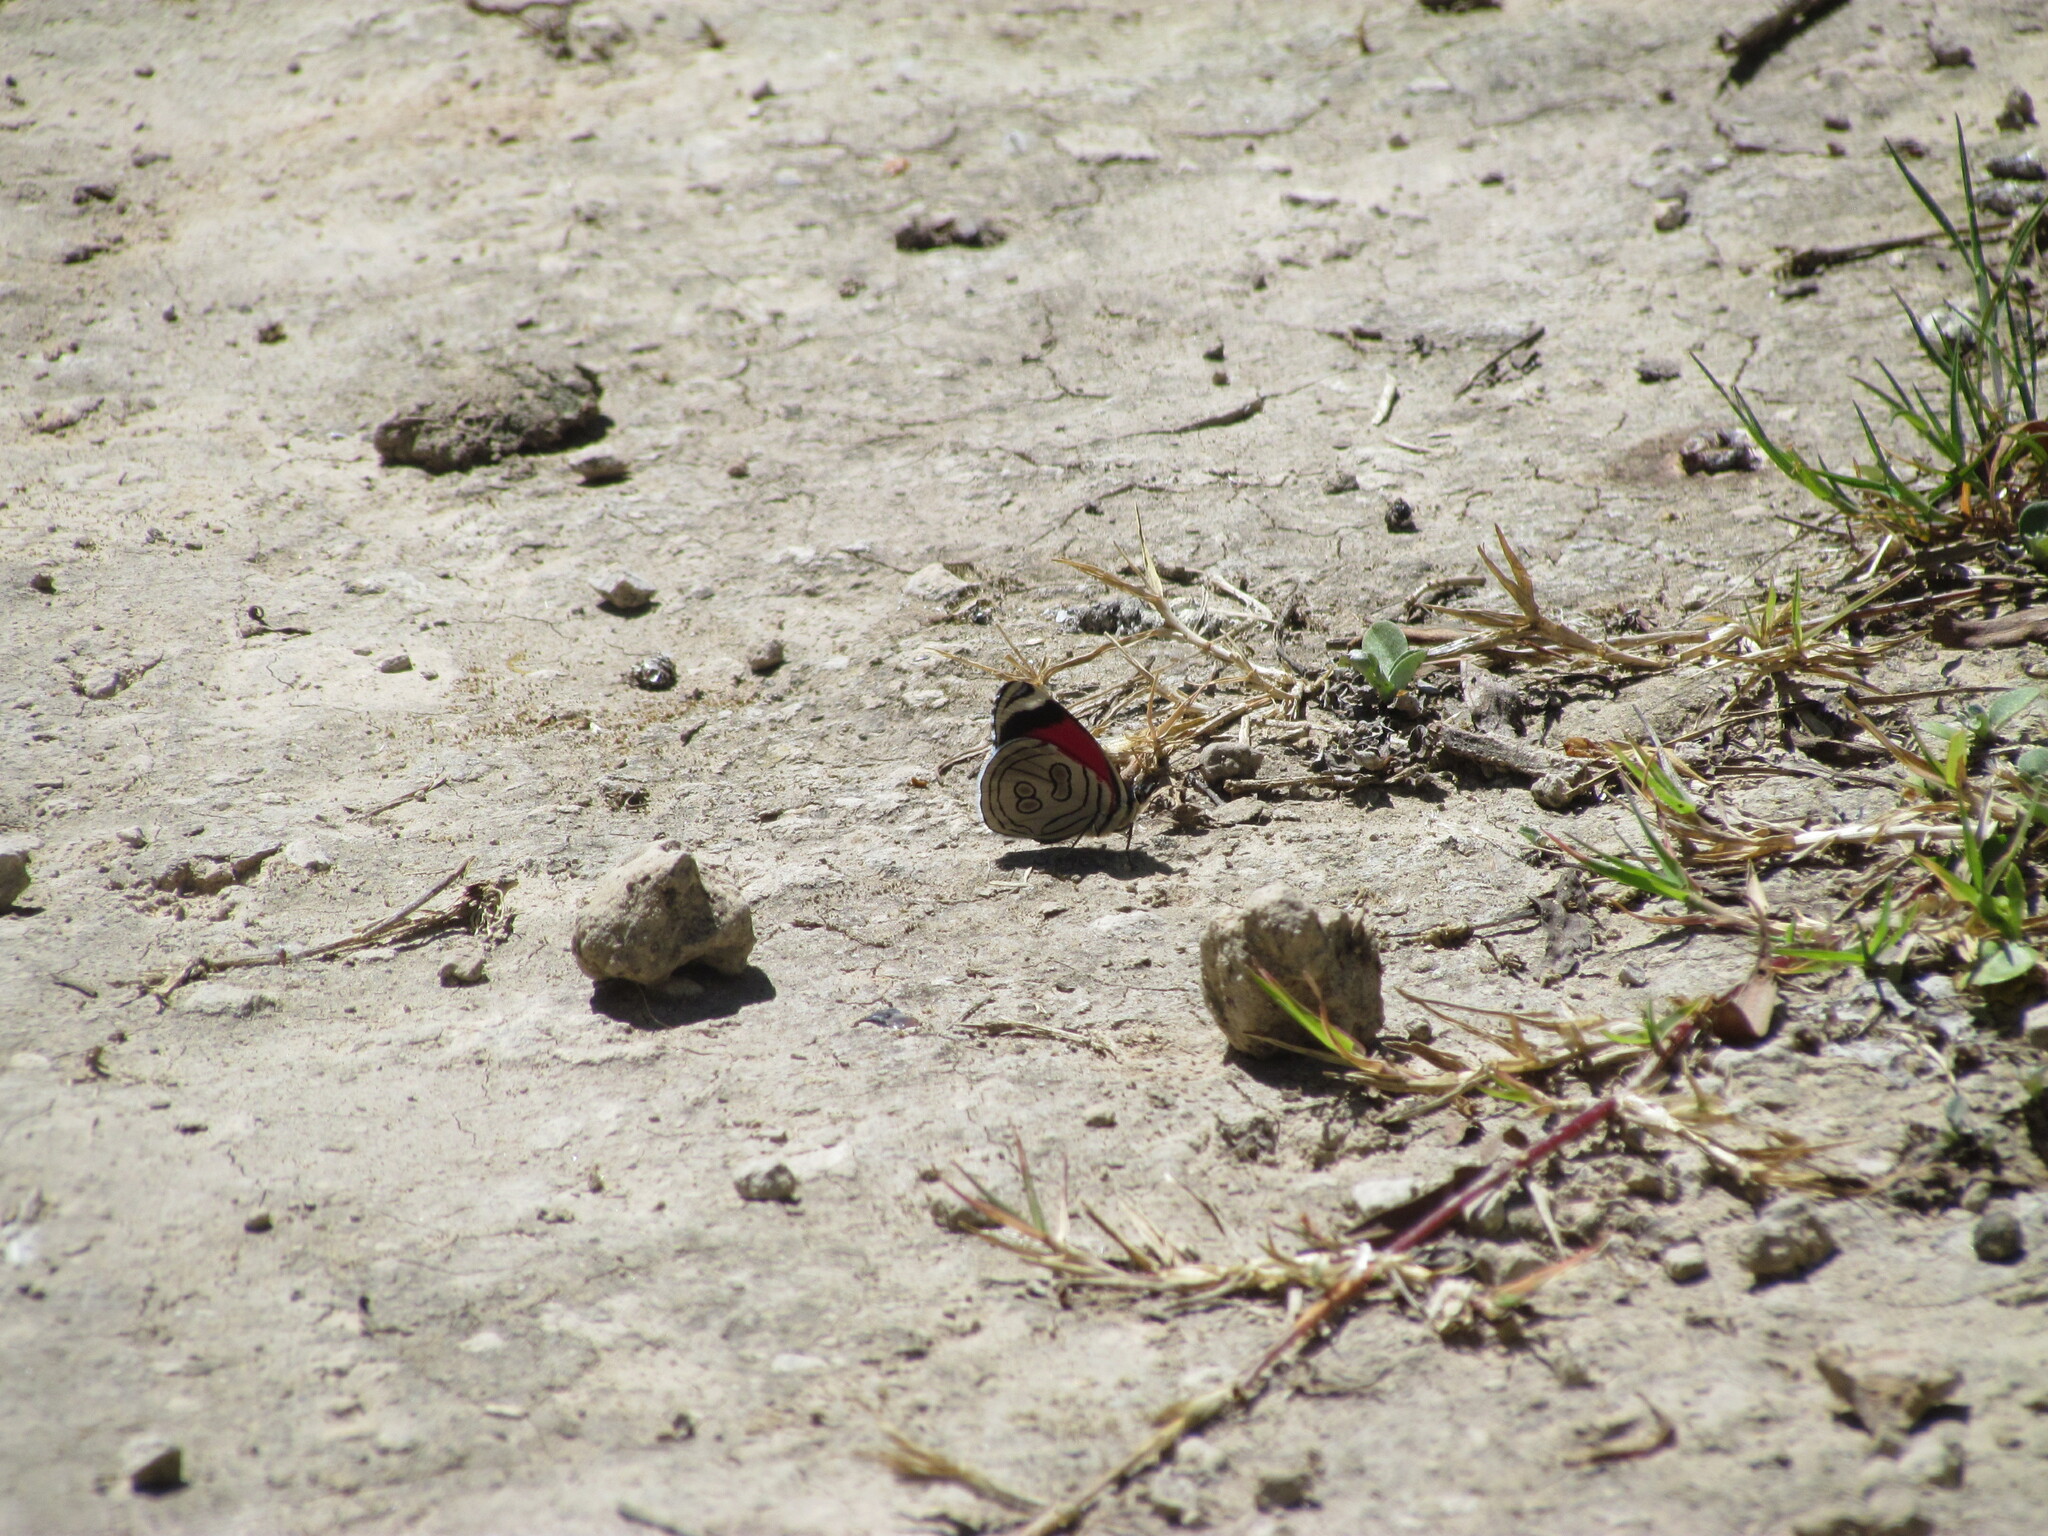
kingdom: Animalia
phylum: Arthropoda
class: Insecta
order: Lepidoptera
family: Nymphalidae
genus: Diaethria
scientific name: Diaethria candrena
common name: Number eighty
